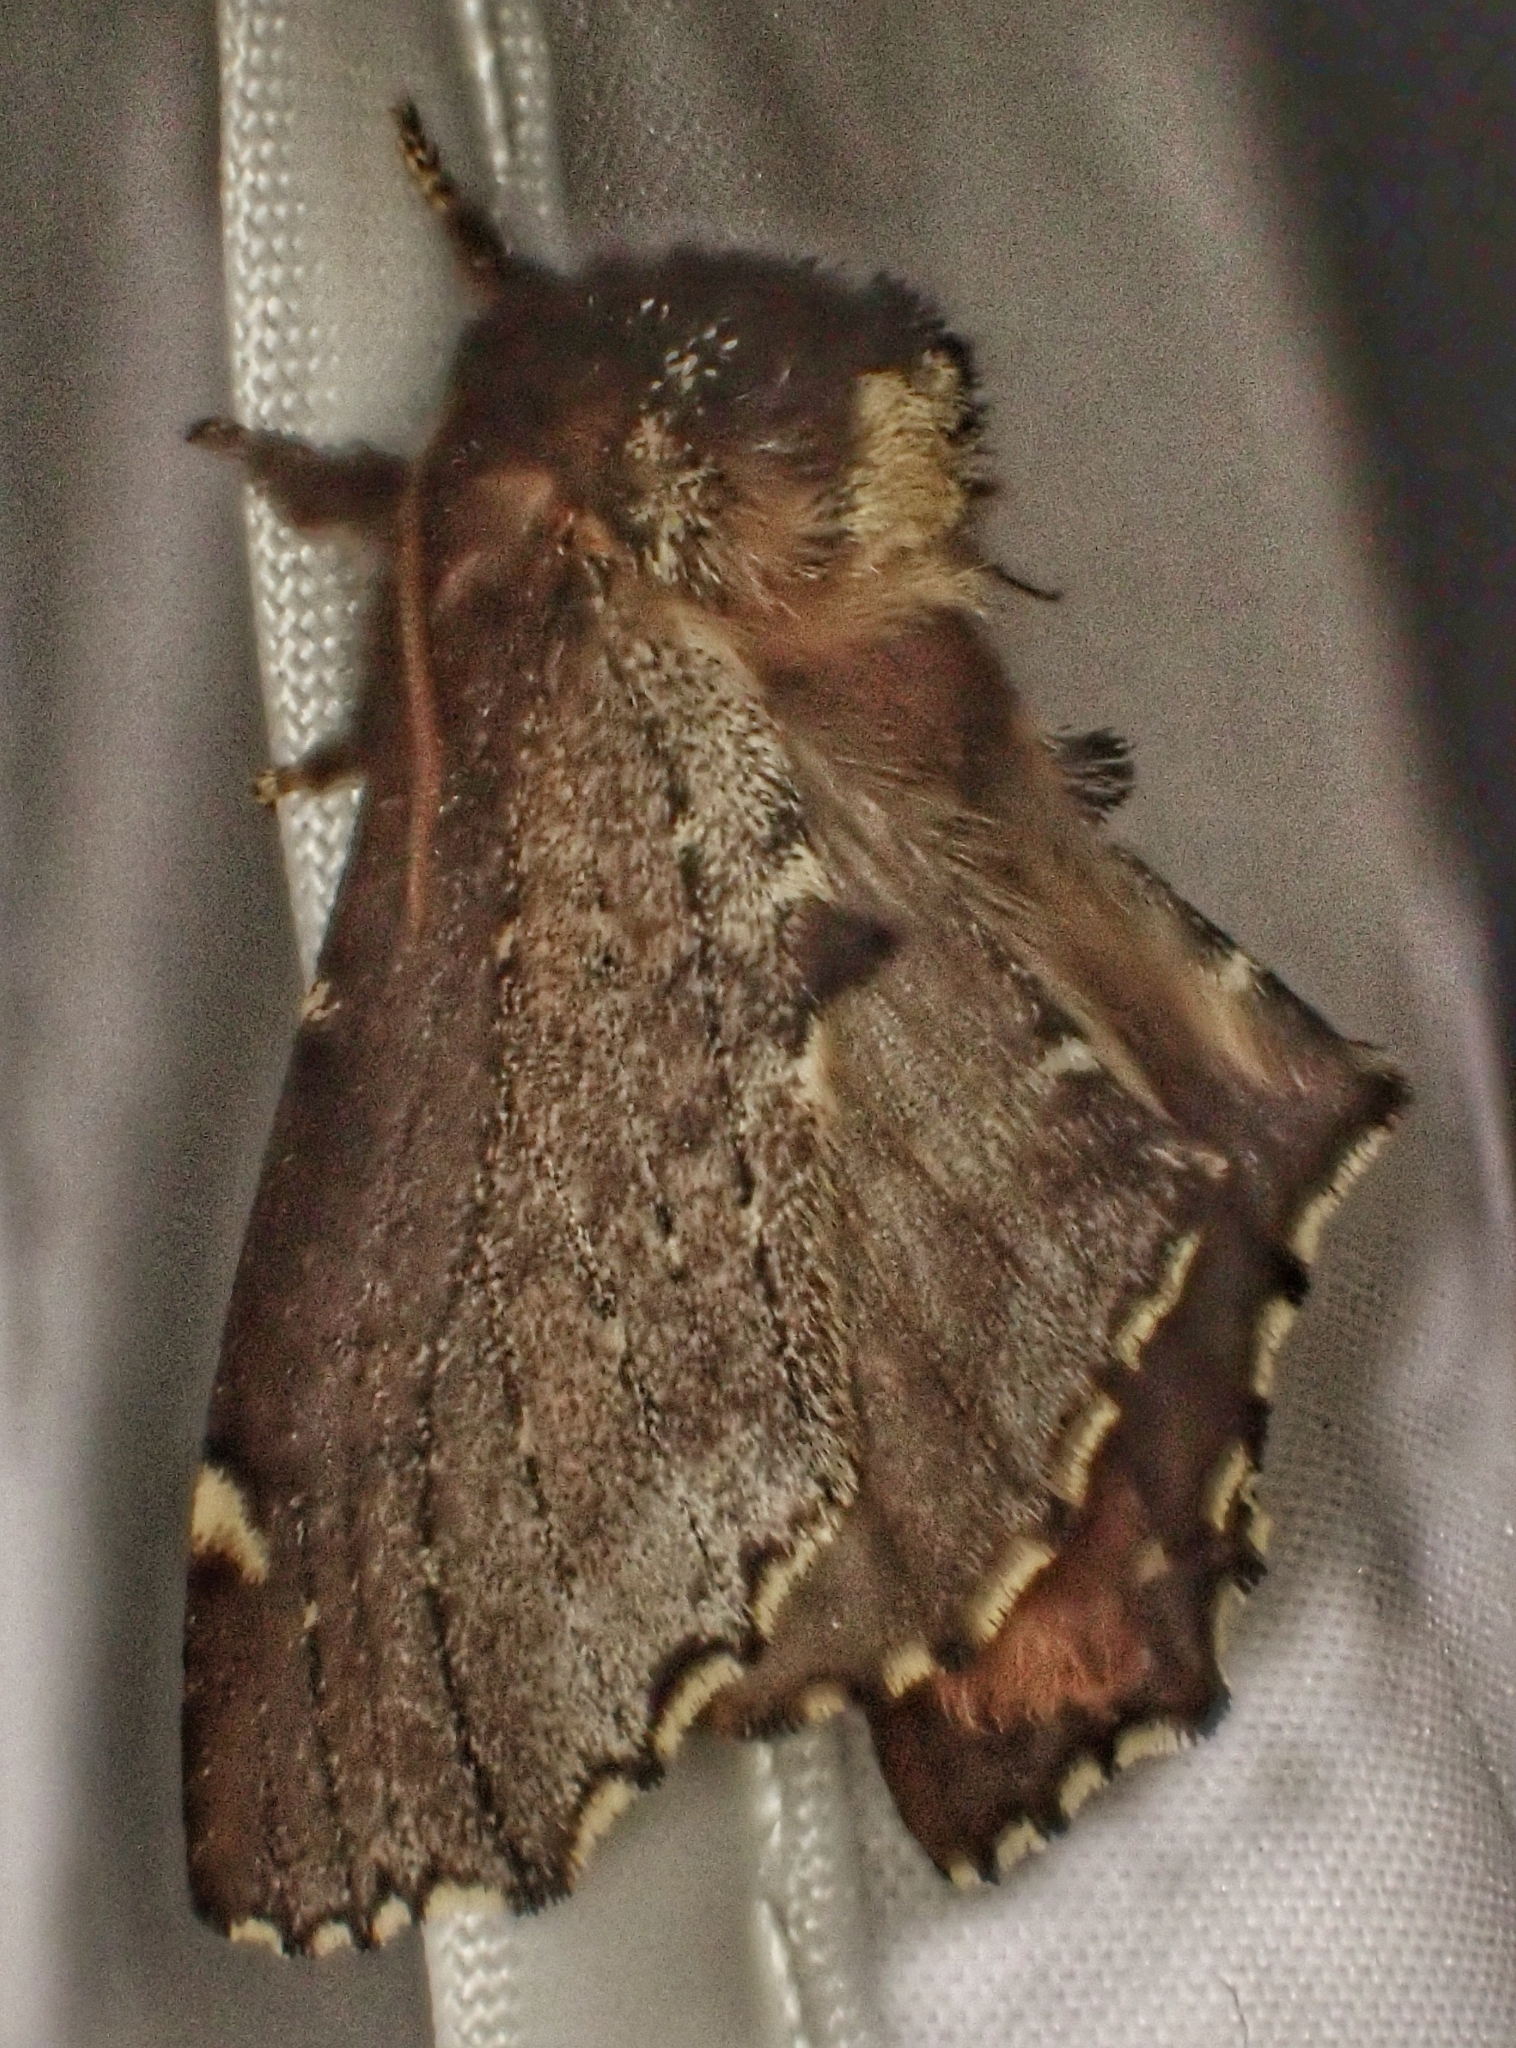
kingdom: Animalia
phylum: Arthropoda
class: Insecta
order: Lepidoptera
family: Notodontidae
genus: Odontosia
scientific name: Odontosia carmelita
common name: Scarce prominent
